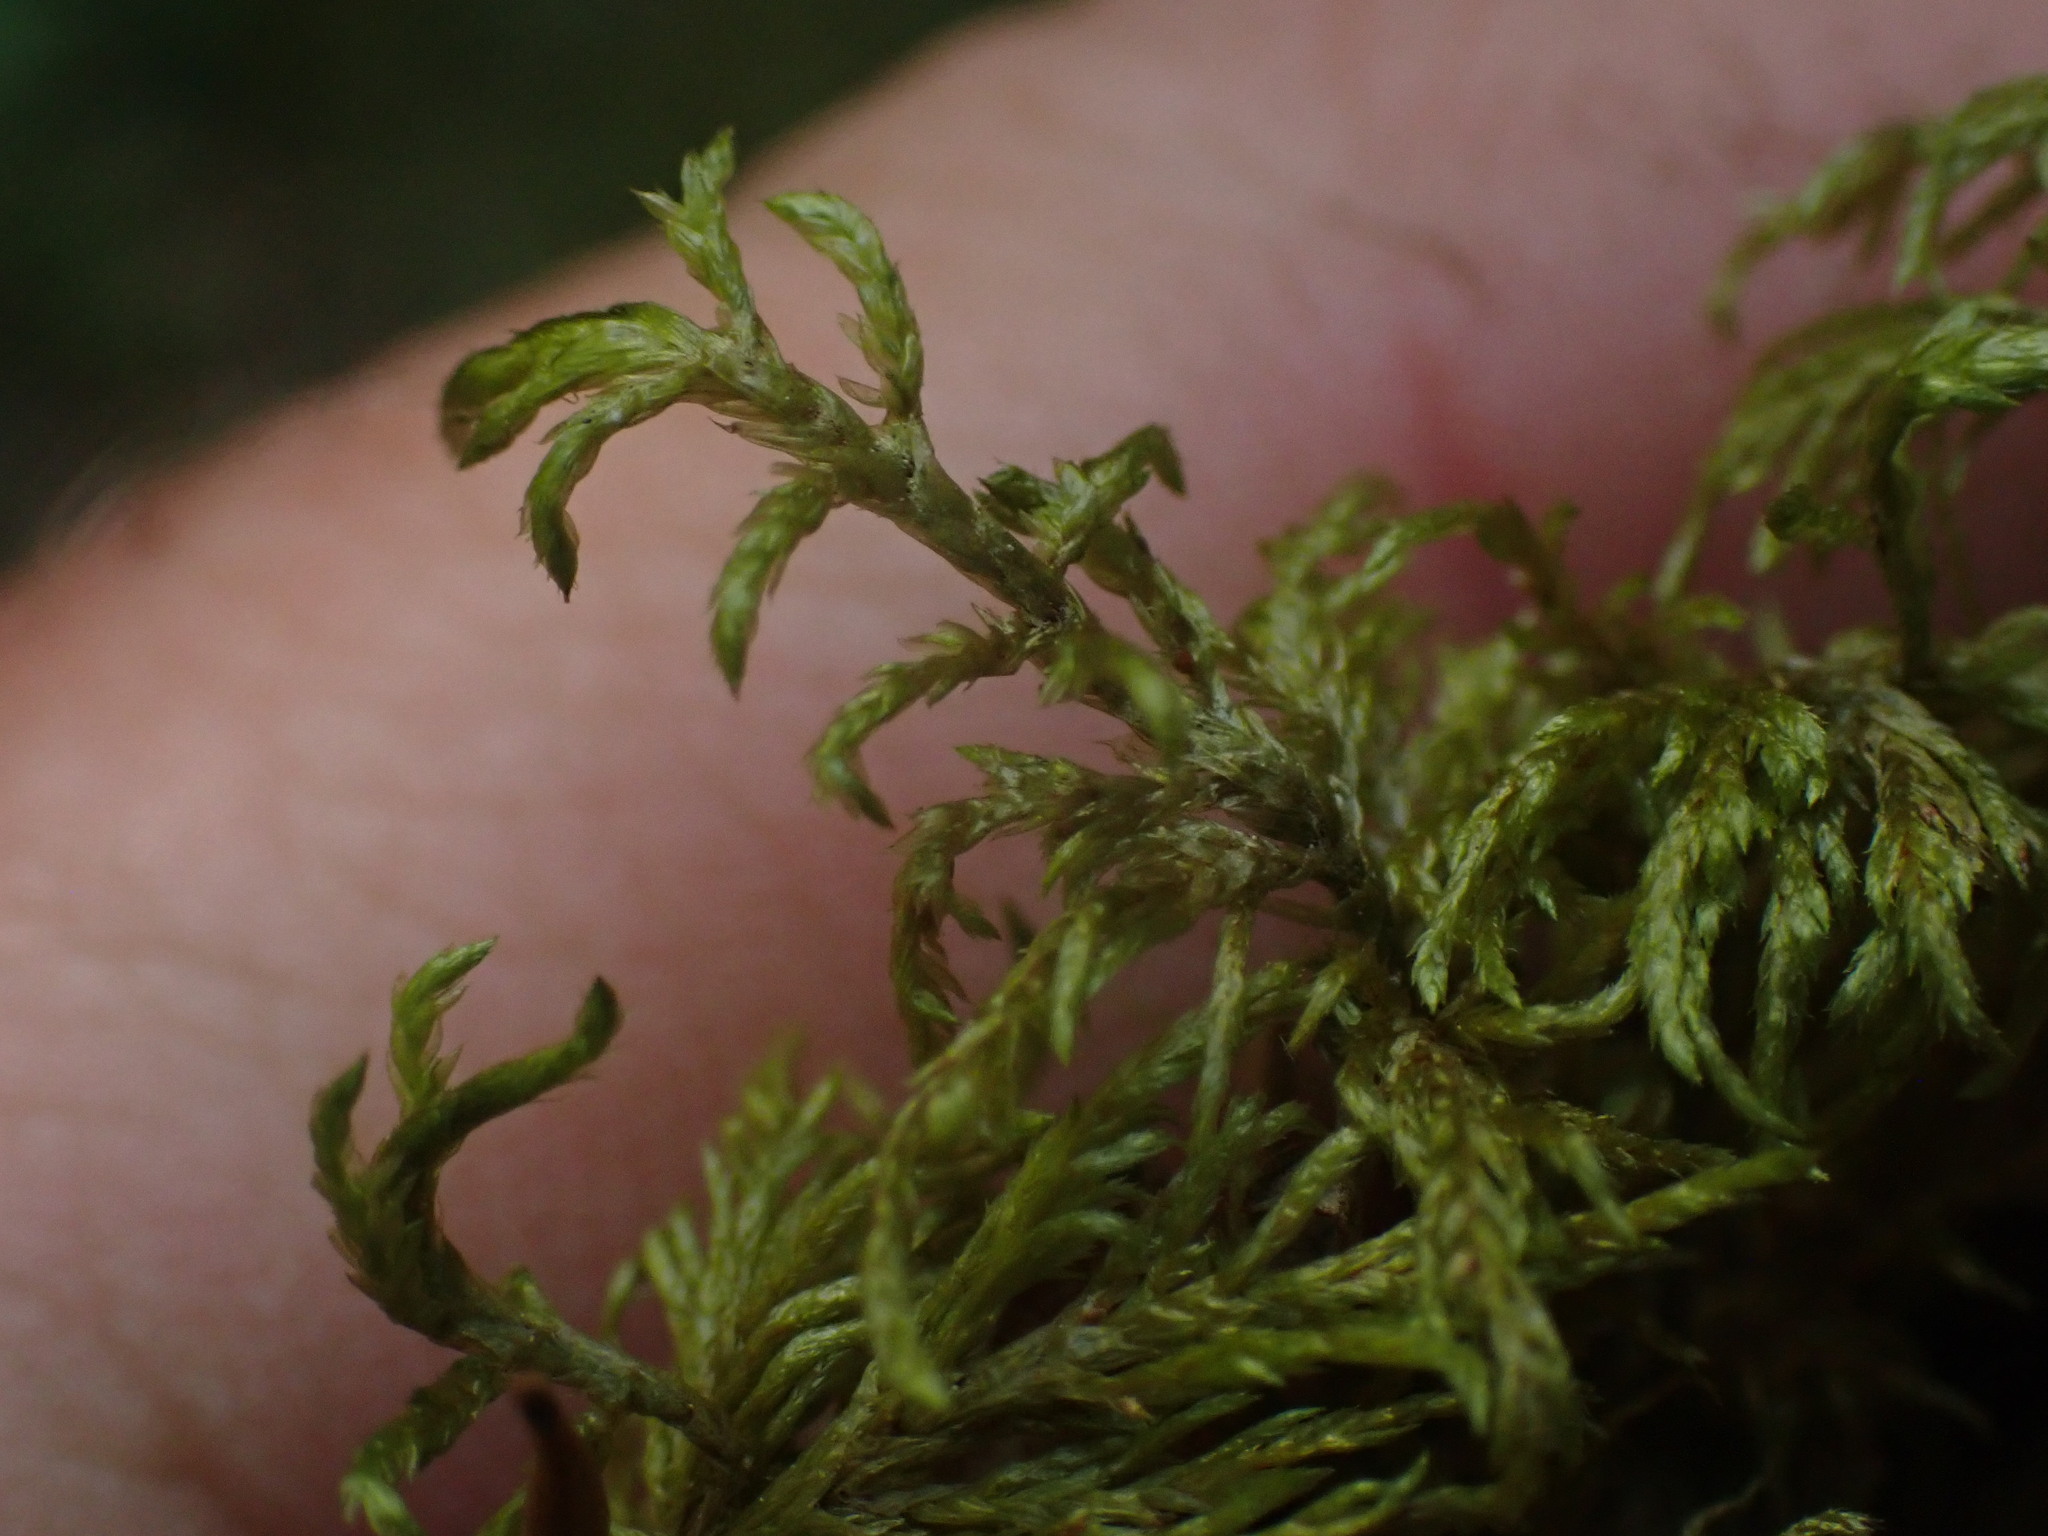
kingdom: Plantae
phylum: Bryophyta
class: Bryopsida
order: Hypnales
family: Hylocomiaceae
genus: Hylocomium
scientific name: Hylocomium splendens
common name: Stairstep moss
